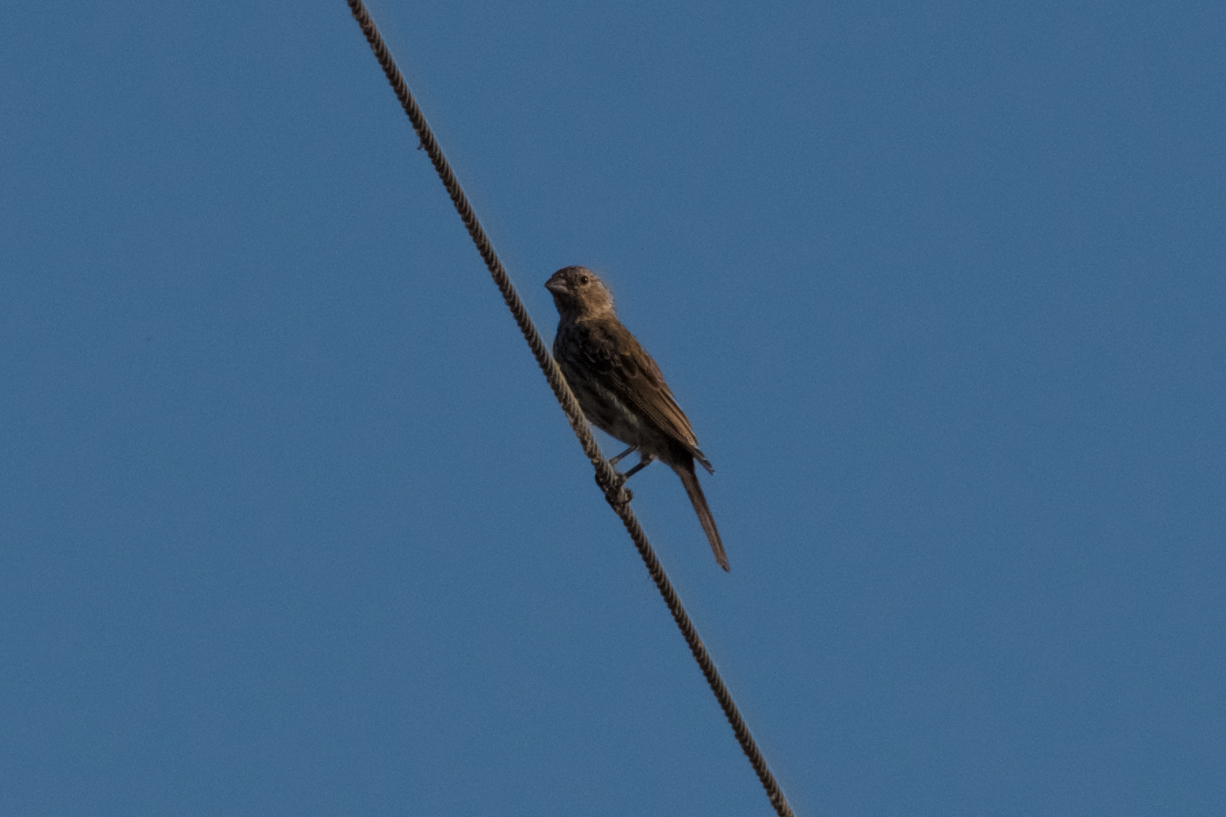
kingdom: Animalia
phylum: Chordata
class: Aves
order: Passeriformes
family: Fringillidae
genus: Haemorhous
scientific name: Haemorhous mexicanus
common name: House finch
